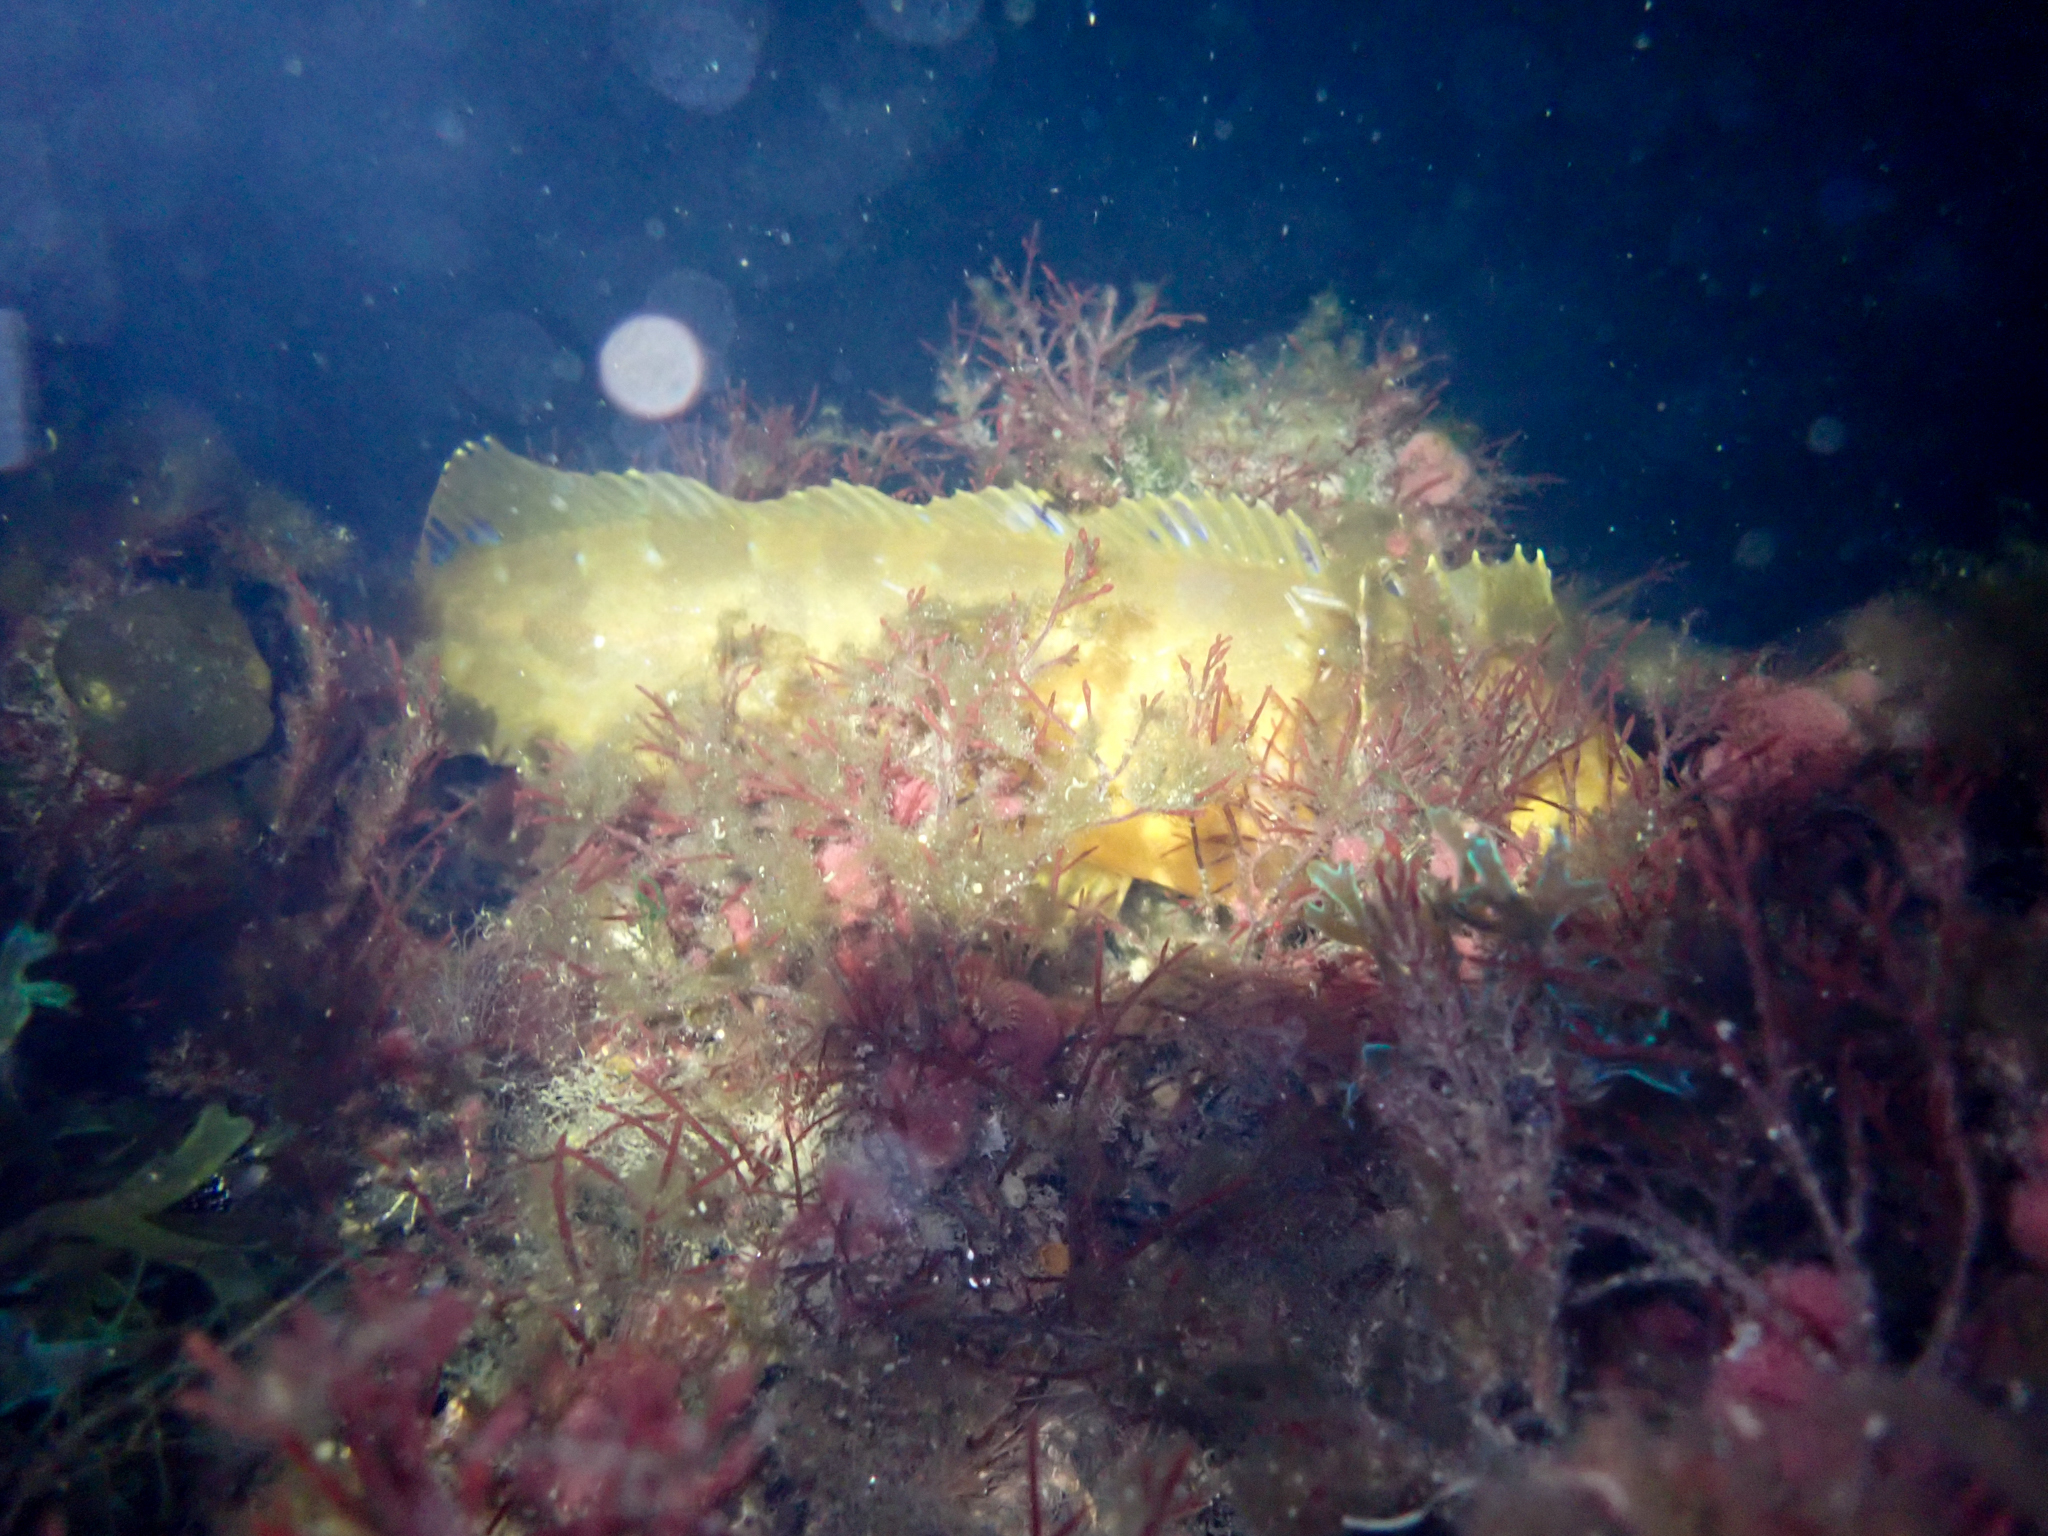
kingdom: Animalia
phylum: Chordata
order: Perciformes
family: Clinidae
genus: Heterostichus
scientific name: Heterostichus rostratus
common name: Giant kelpfish
